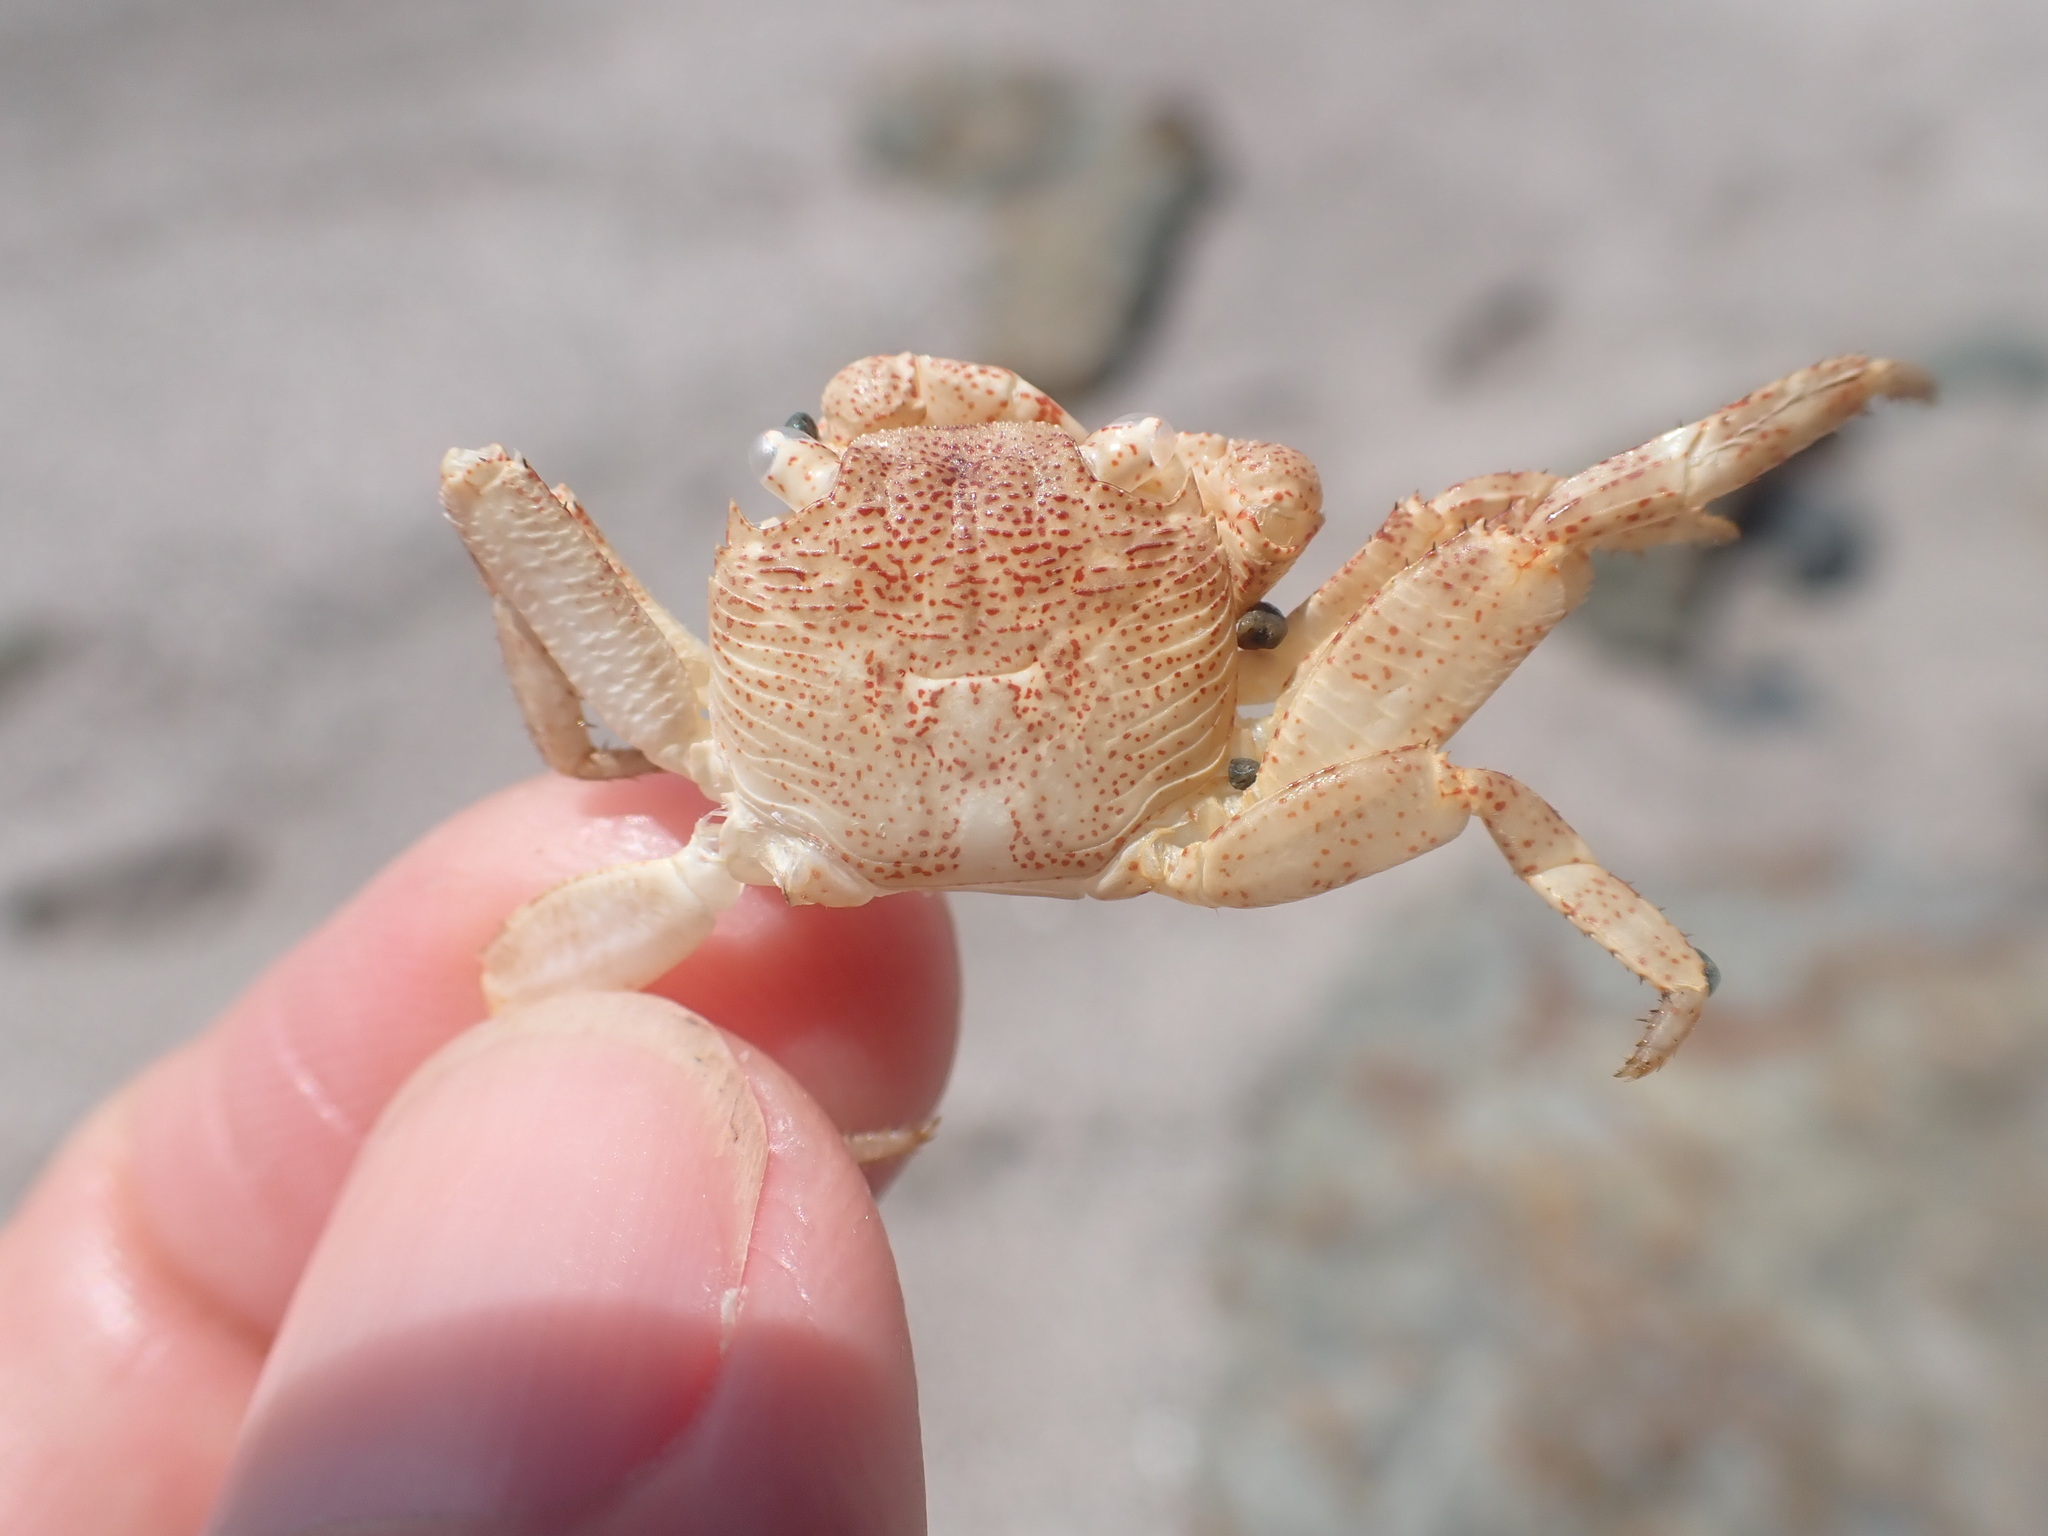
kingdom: Animalia
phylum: Arthropoda
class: Malacostraca
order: Decapoda
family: Grapsidae
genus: Leptograpsus
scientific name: Leptograpsus variegatus
